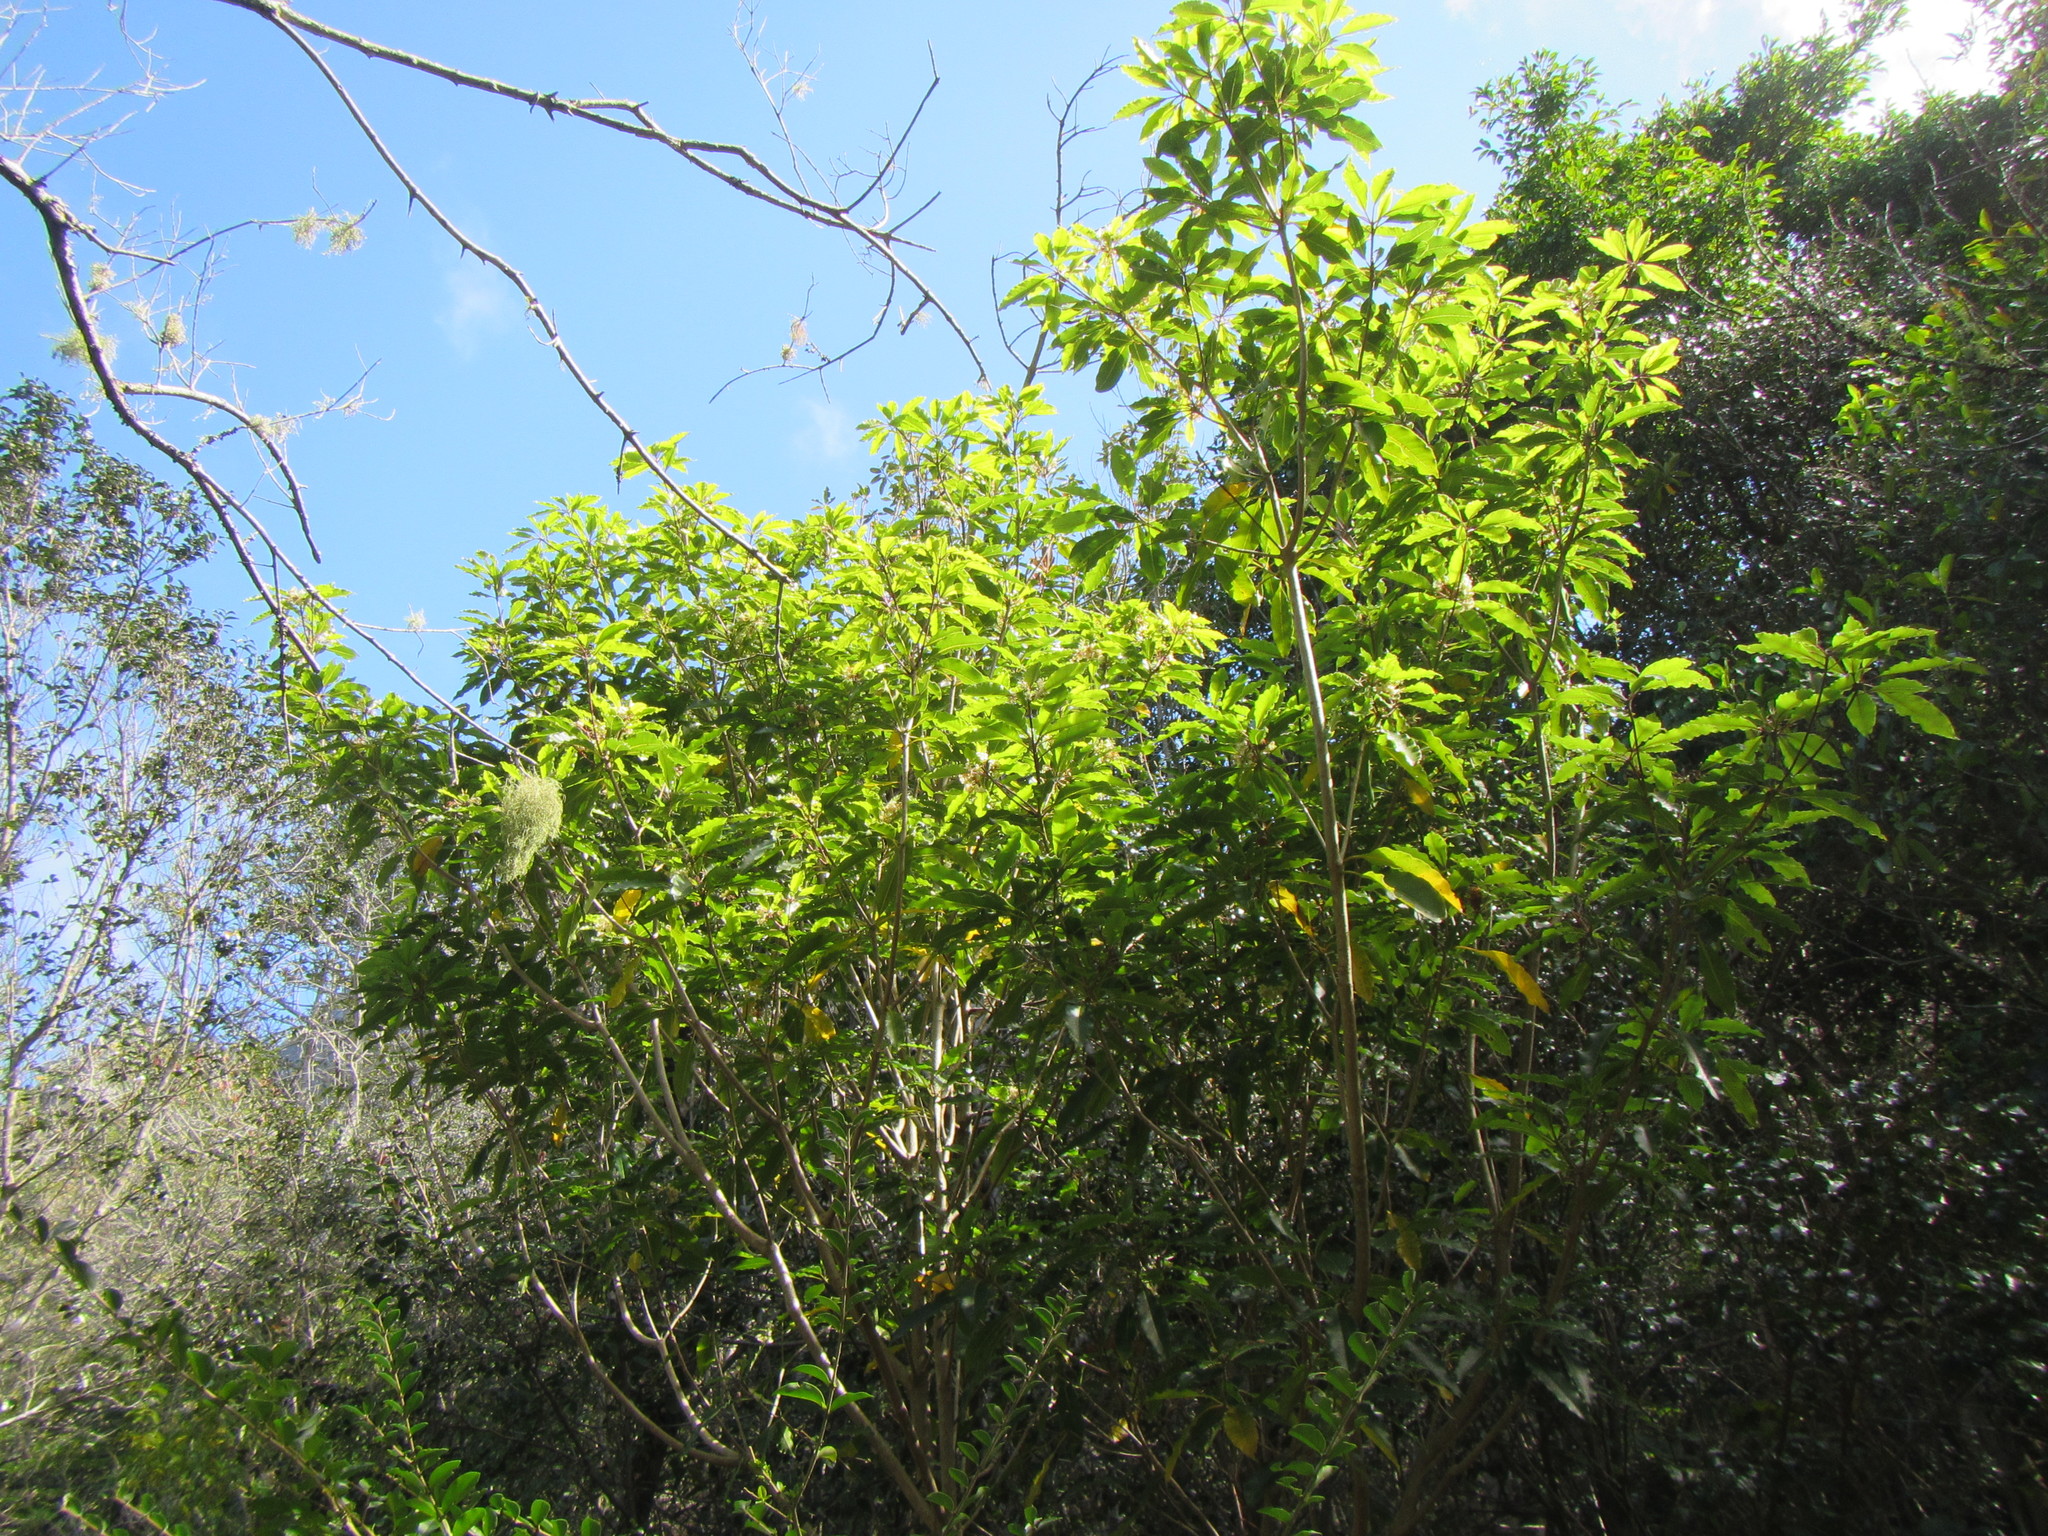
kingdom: Plantae
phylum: Tracheophyta
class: Magnoliopsida
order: Apiales
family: Pittosporaceae
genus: Pittosporum
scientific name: Pittosporum undulatum
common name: Australian cheesewood
